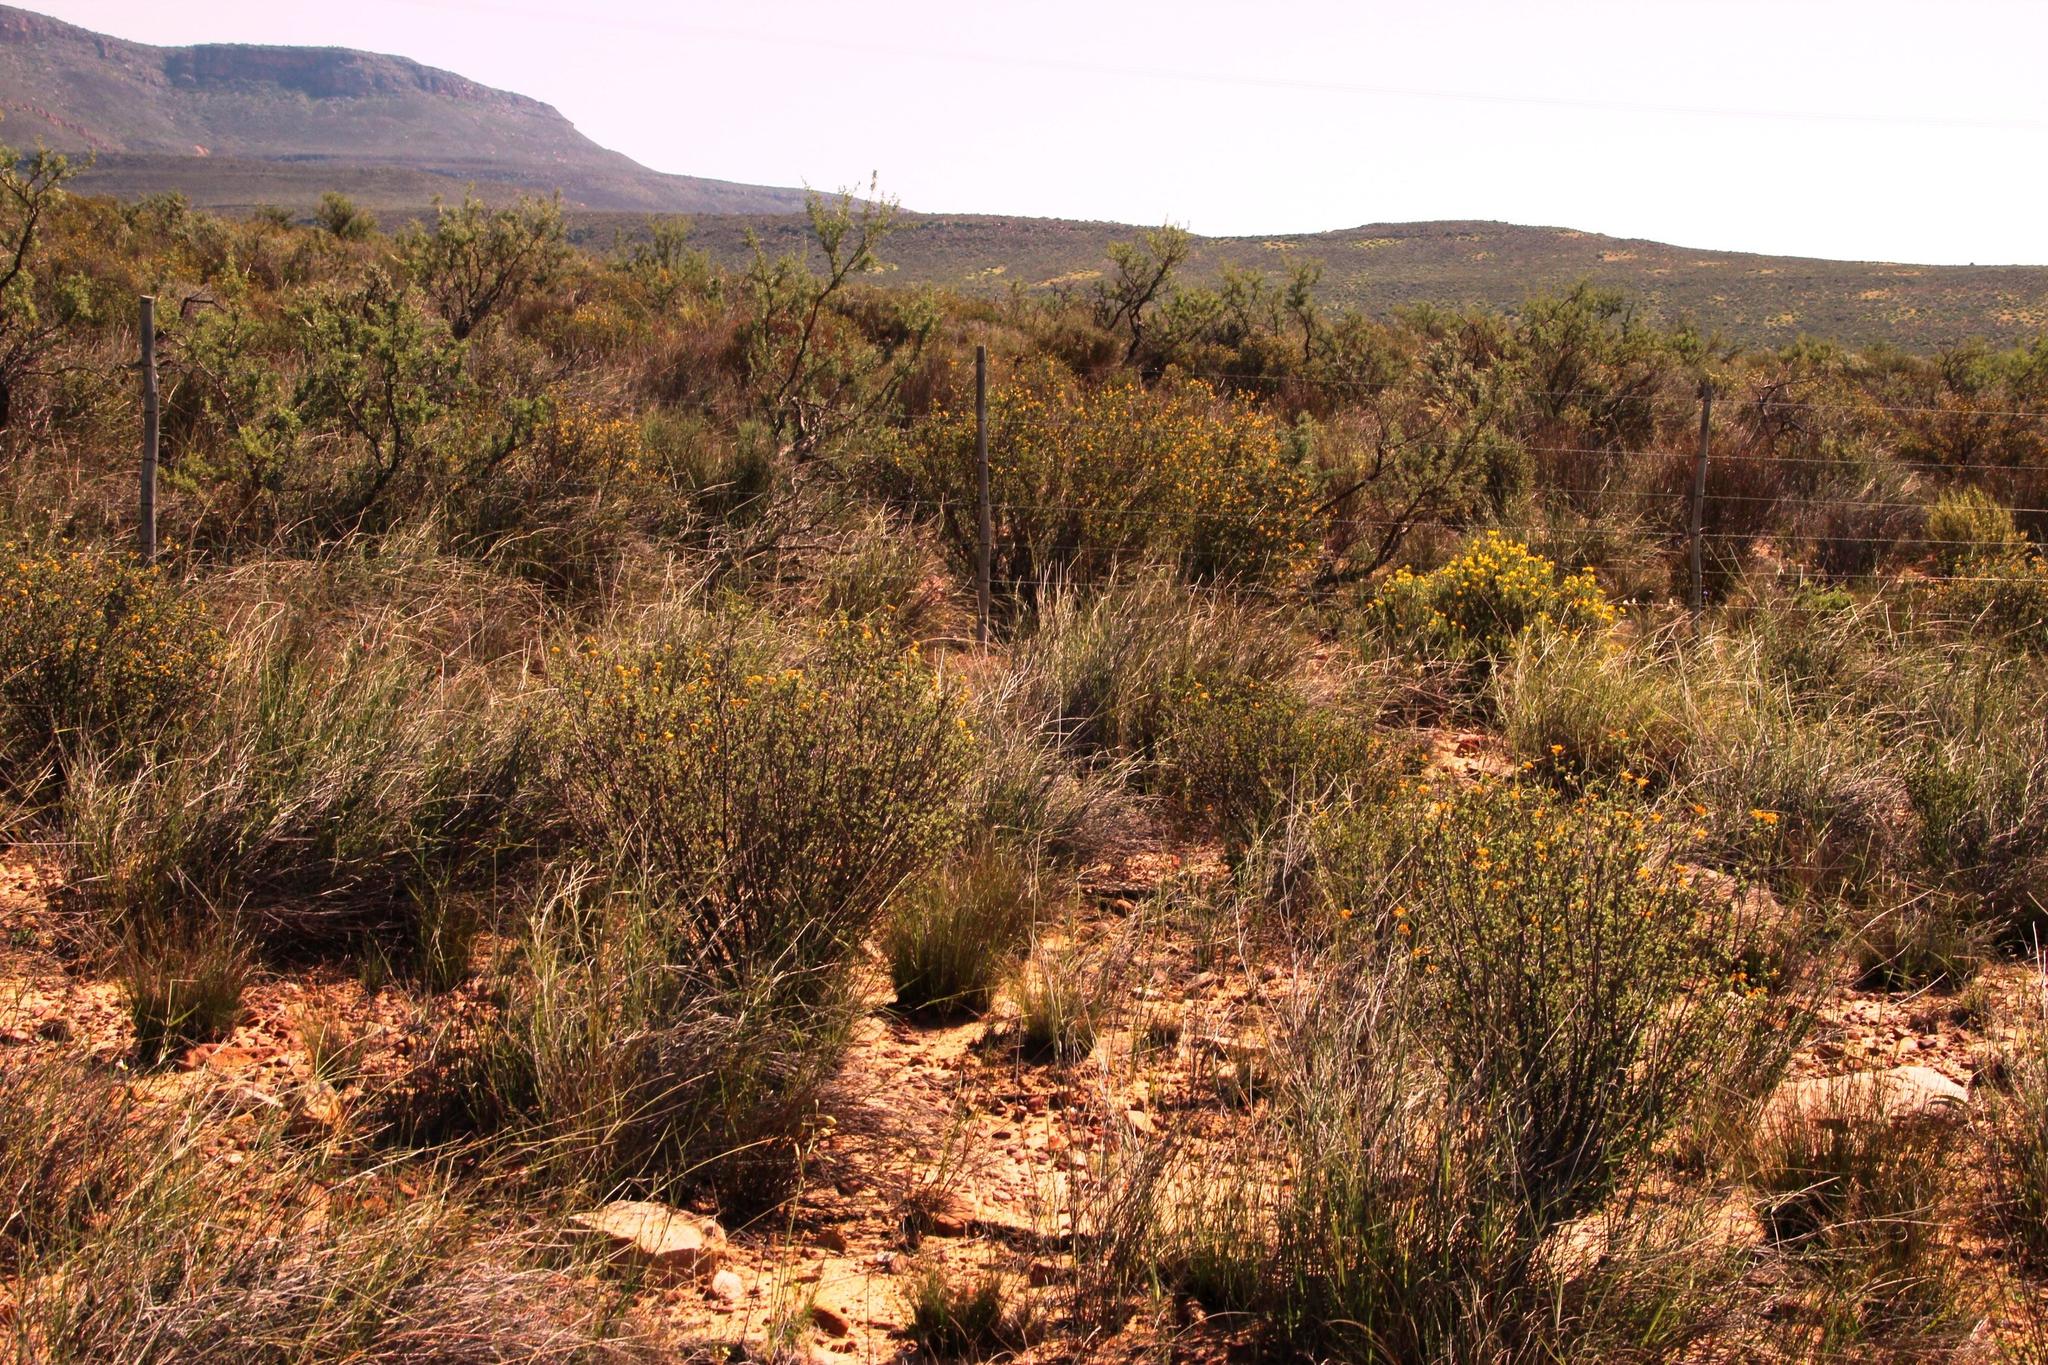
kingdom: Plantae
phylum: Tracheophyta
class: Magnoliopsida
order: Malvales
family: Thymelaeaceae
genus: Gnidia
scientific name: Gnidia deserticola
